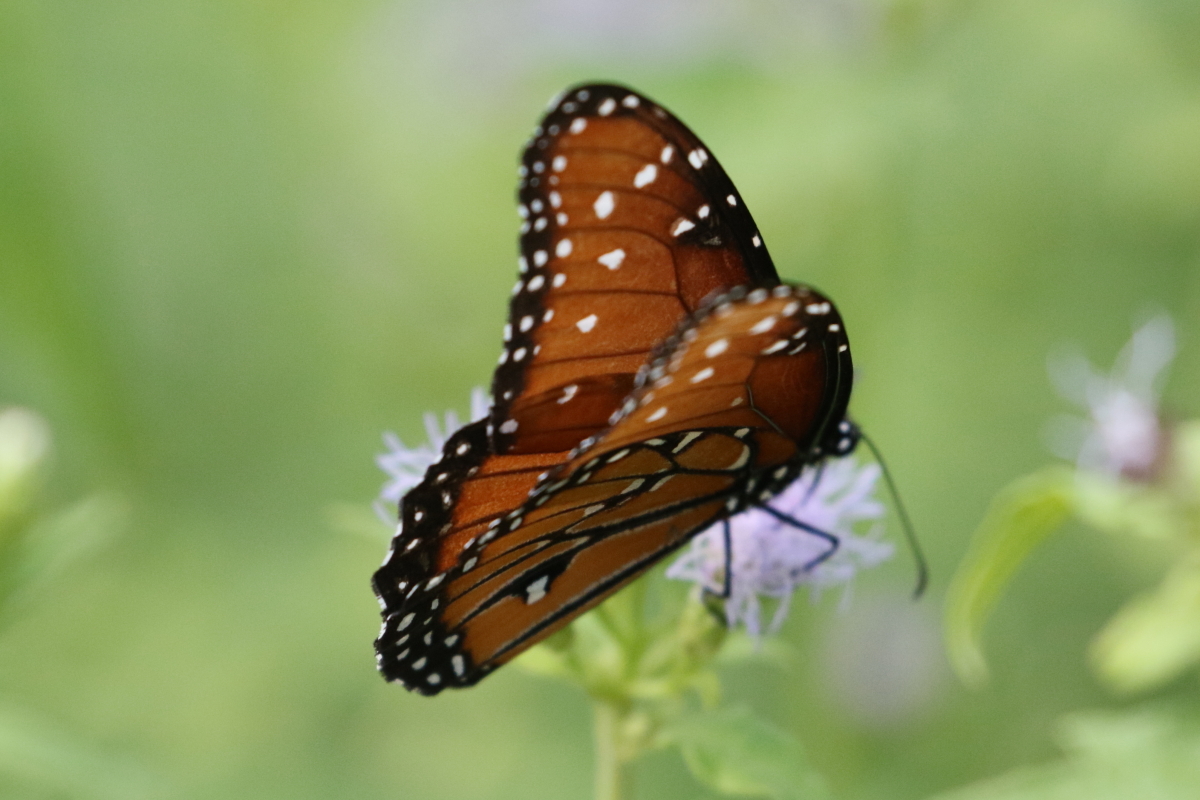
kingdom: Animalia
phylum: Arthropoda
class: Insecta
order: Lepidoptera
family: Nymphalidae
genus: Danaus
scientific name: Danaus gilippus
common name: Queen
